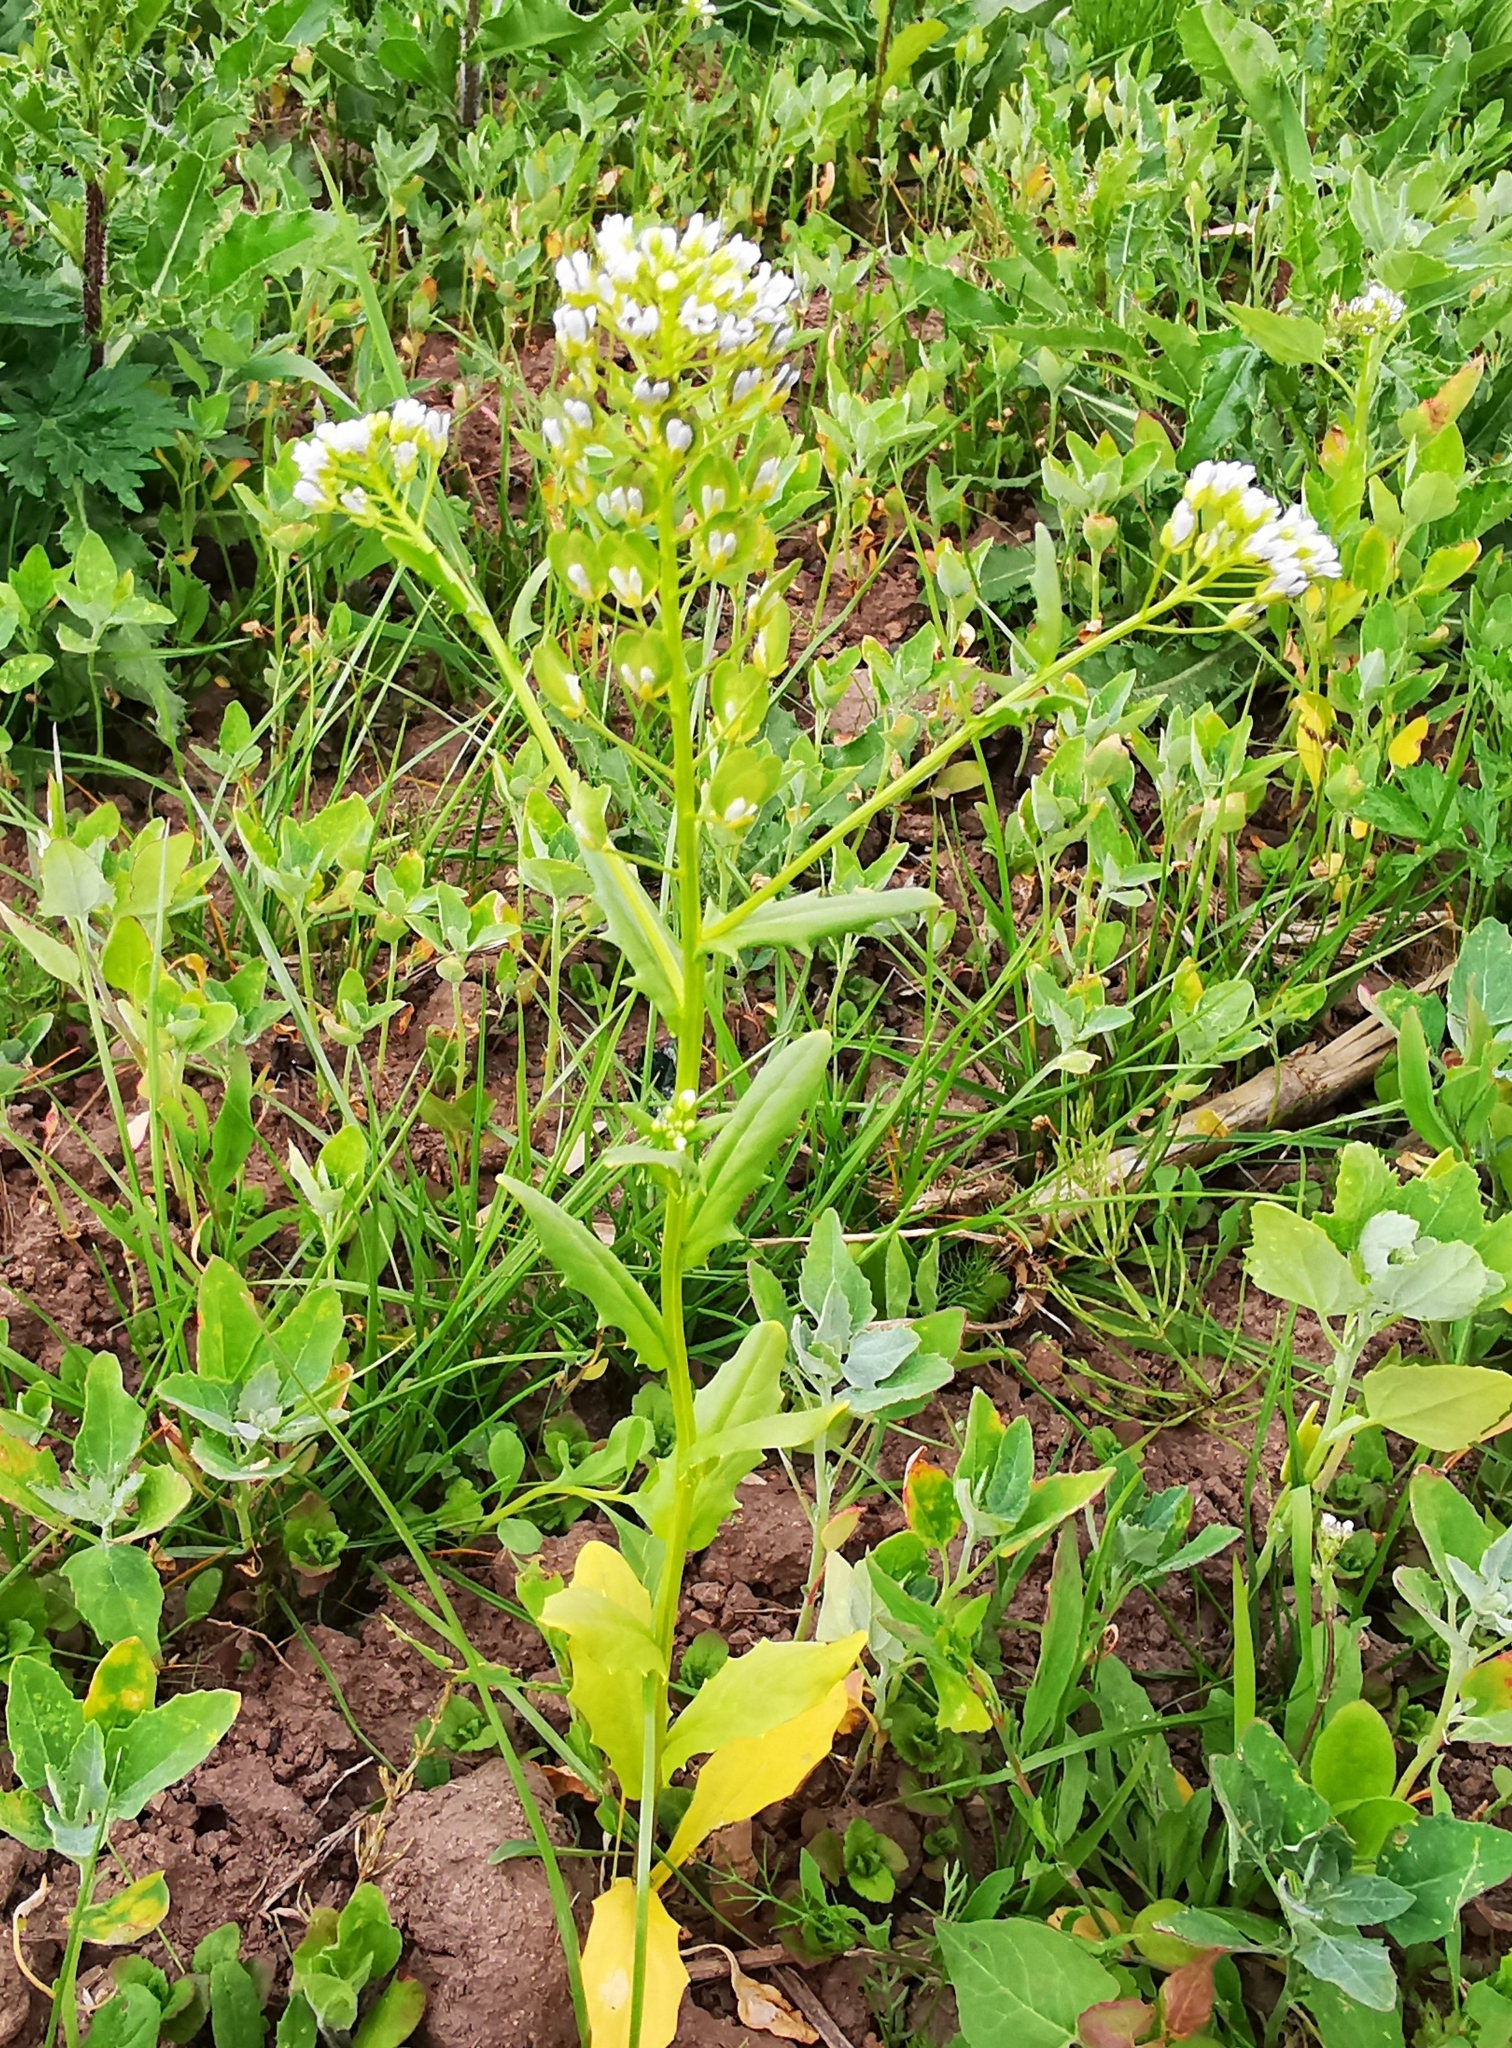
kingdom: Plantae
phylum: Tracheophyta
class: Magnoliopsida
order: Brassicales
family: Brassicaceae
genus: Thlaspi
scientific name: Thlaspi arvense
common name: Field pennycress
